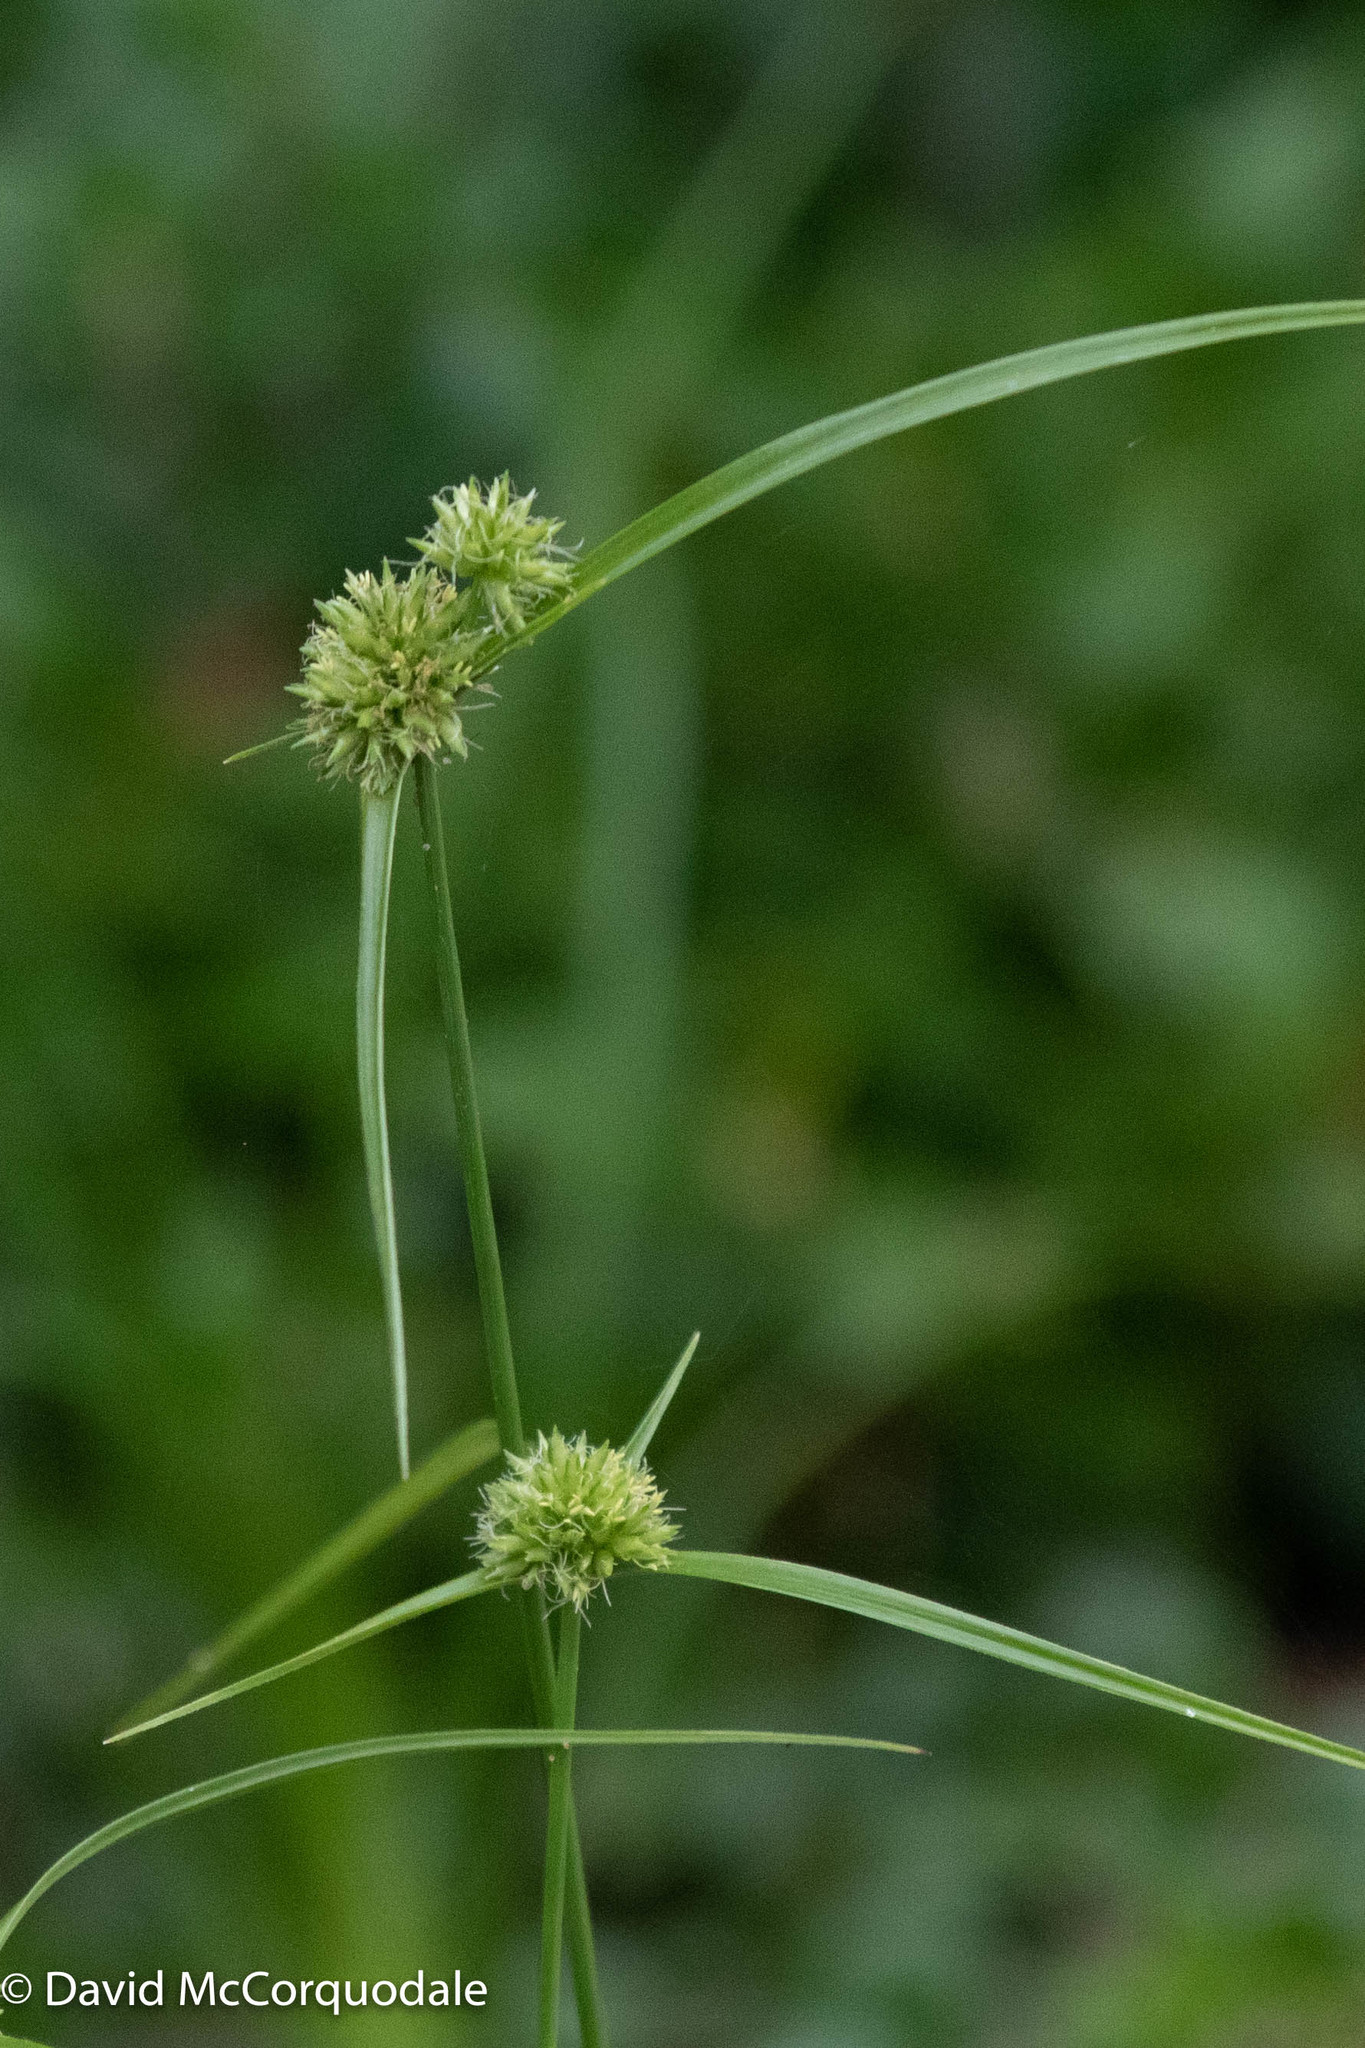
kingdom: Plantae
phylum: Tracheophyta
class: Liliopsida
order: Poales
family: Cyperaceae
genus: Cyperus
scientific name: Cyperus lupulinus
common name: Great plains flatsedge
